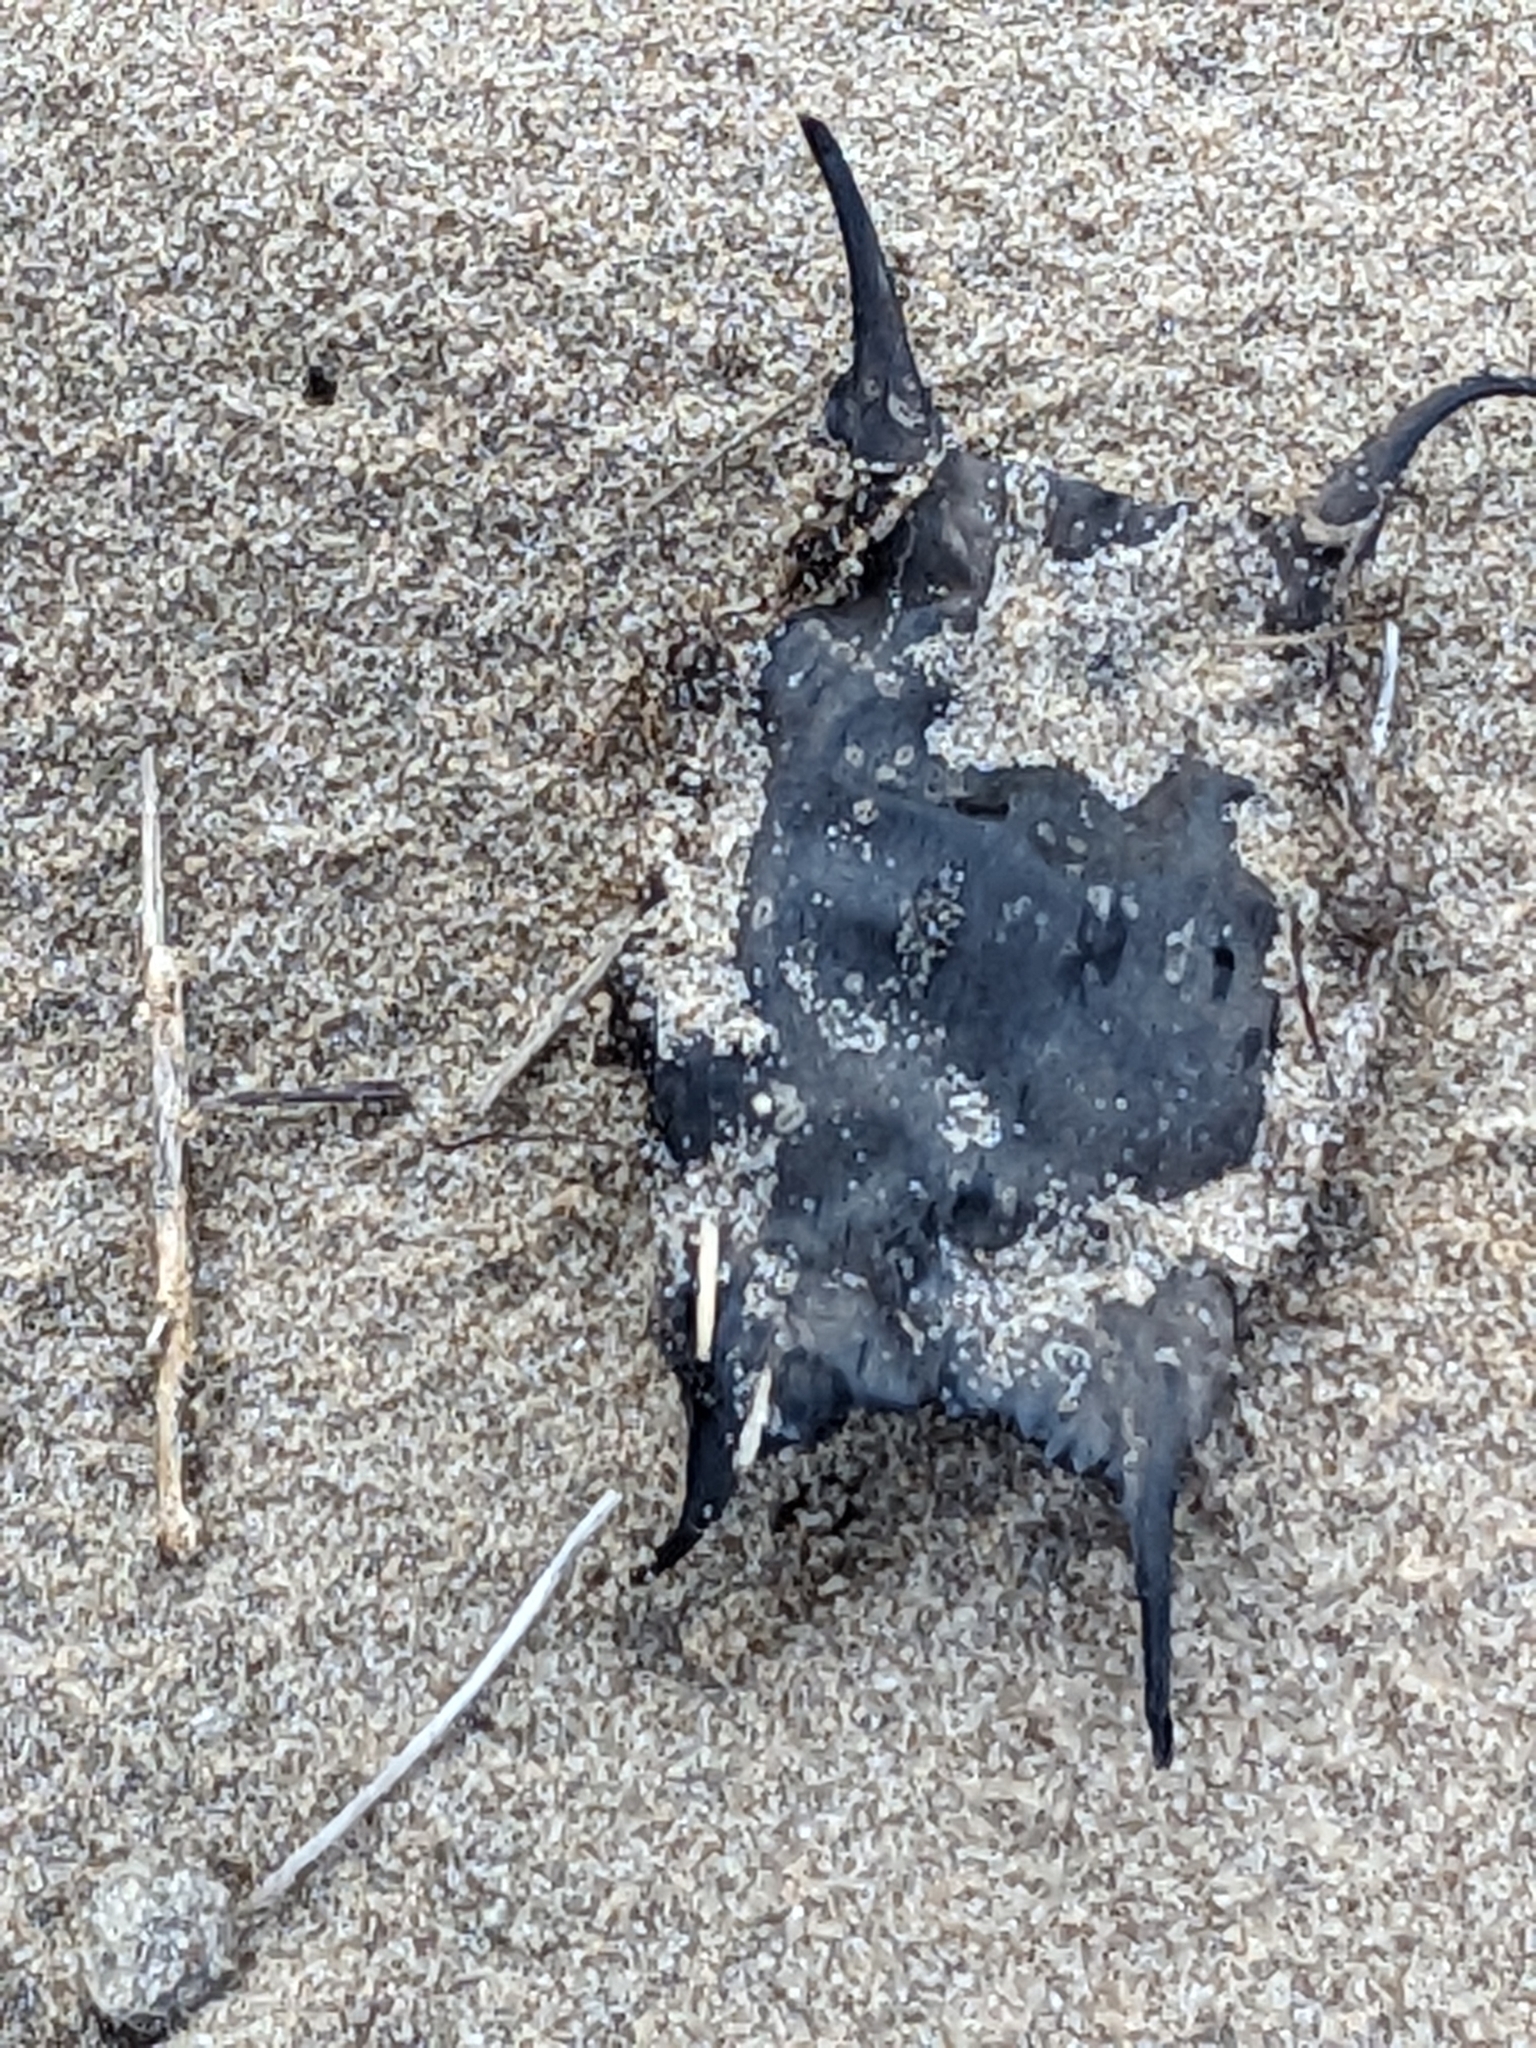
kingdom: Animalia
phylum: Chordata
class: Elasmobranchii
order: Rajiformes
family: Rajidae
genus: Raja
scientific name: Raja clavata
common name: Thornback ray
